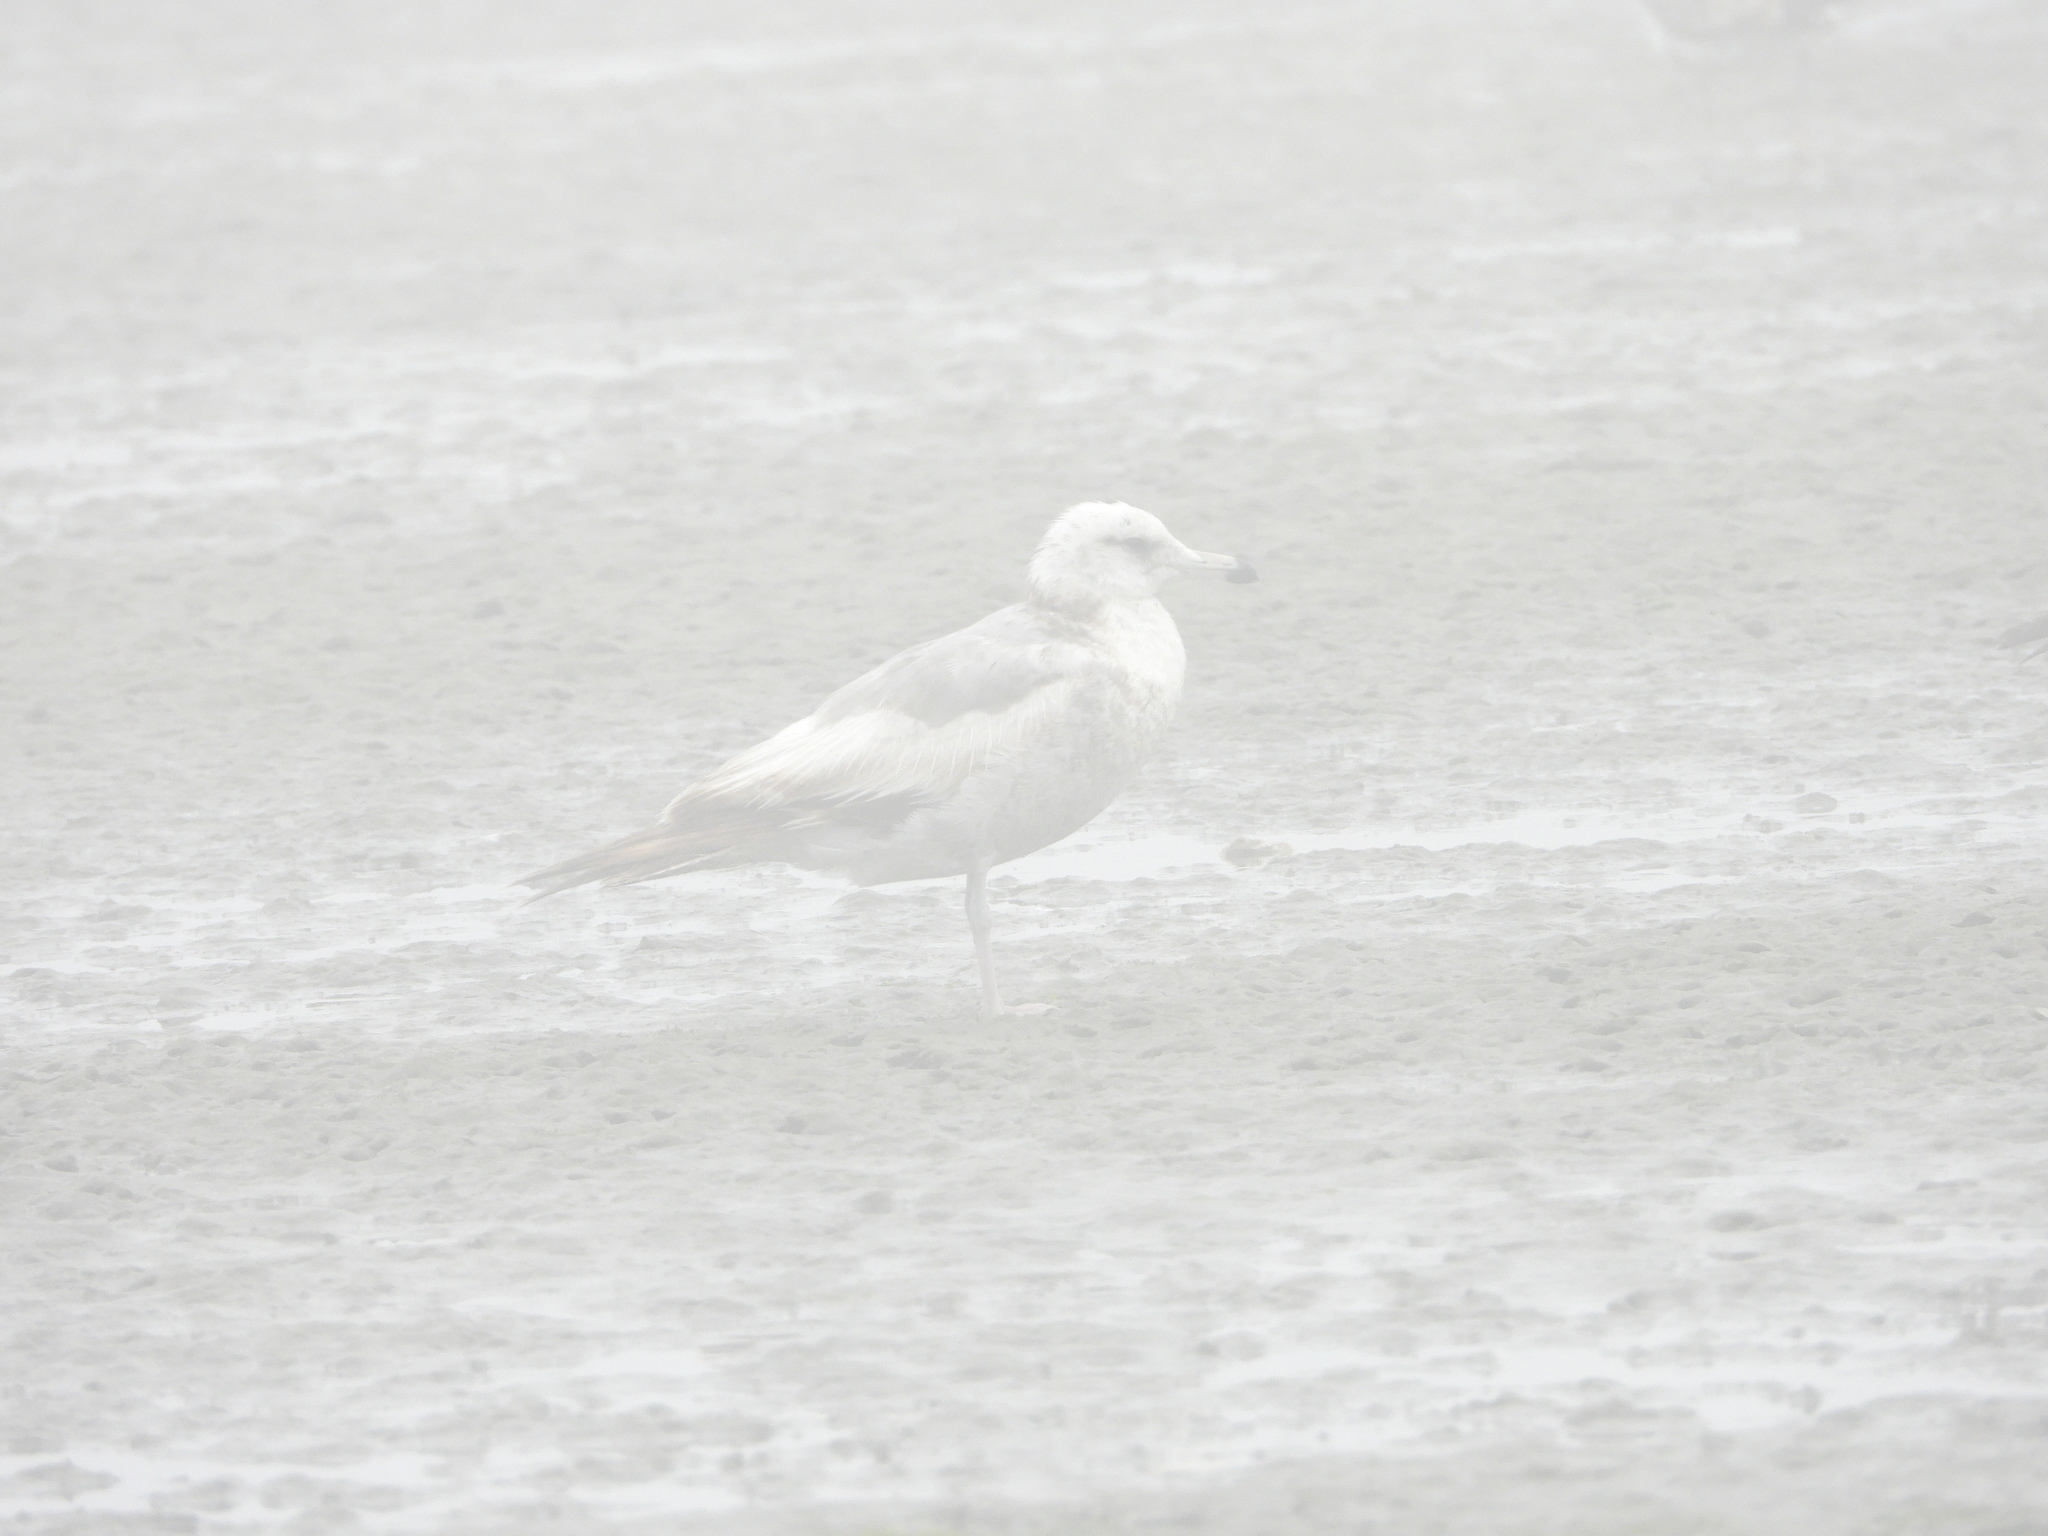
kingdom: Animalia
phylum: Chordata
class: Aves
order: Charadriiformes
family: Laridae
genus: Larus
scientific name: Larus californicus
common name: California gull
